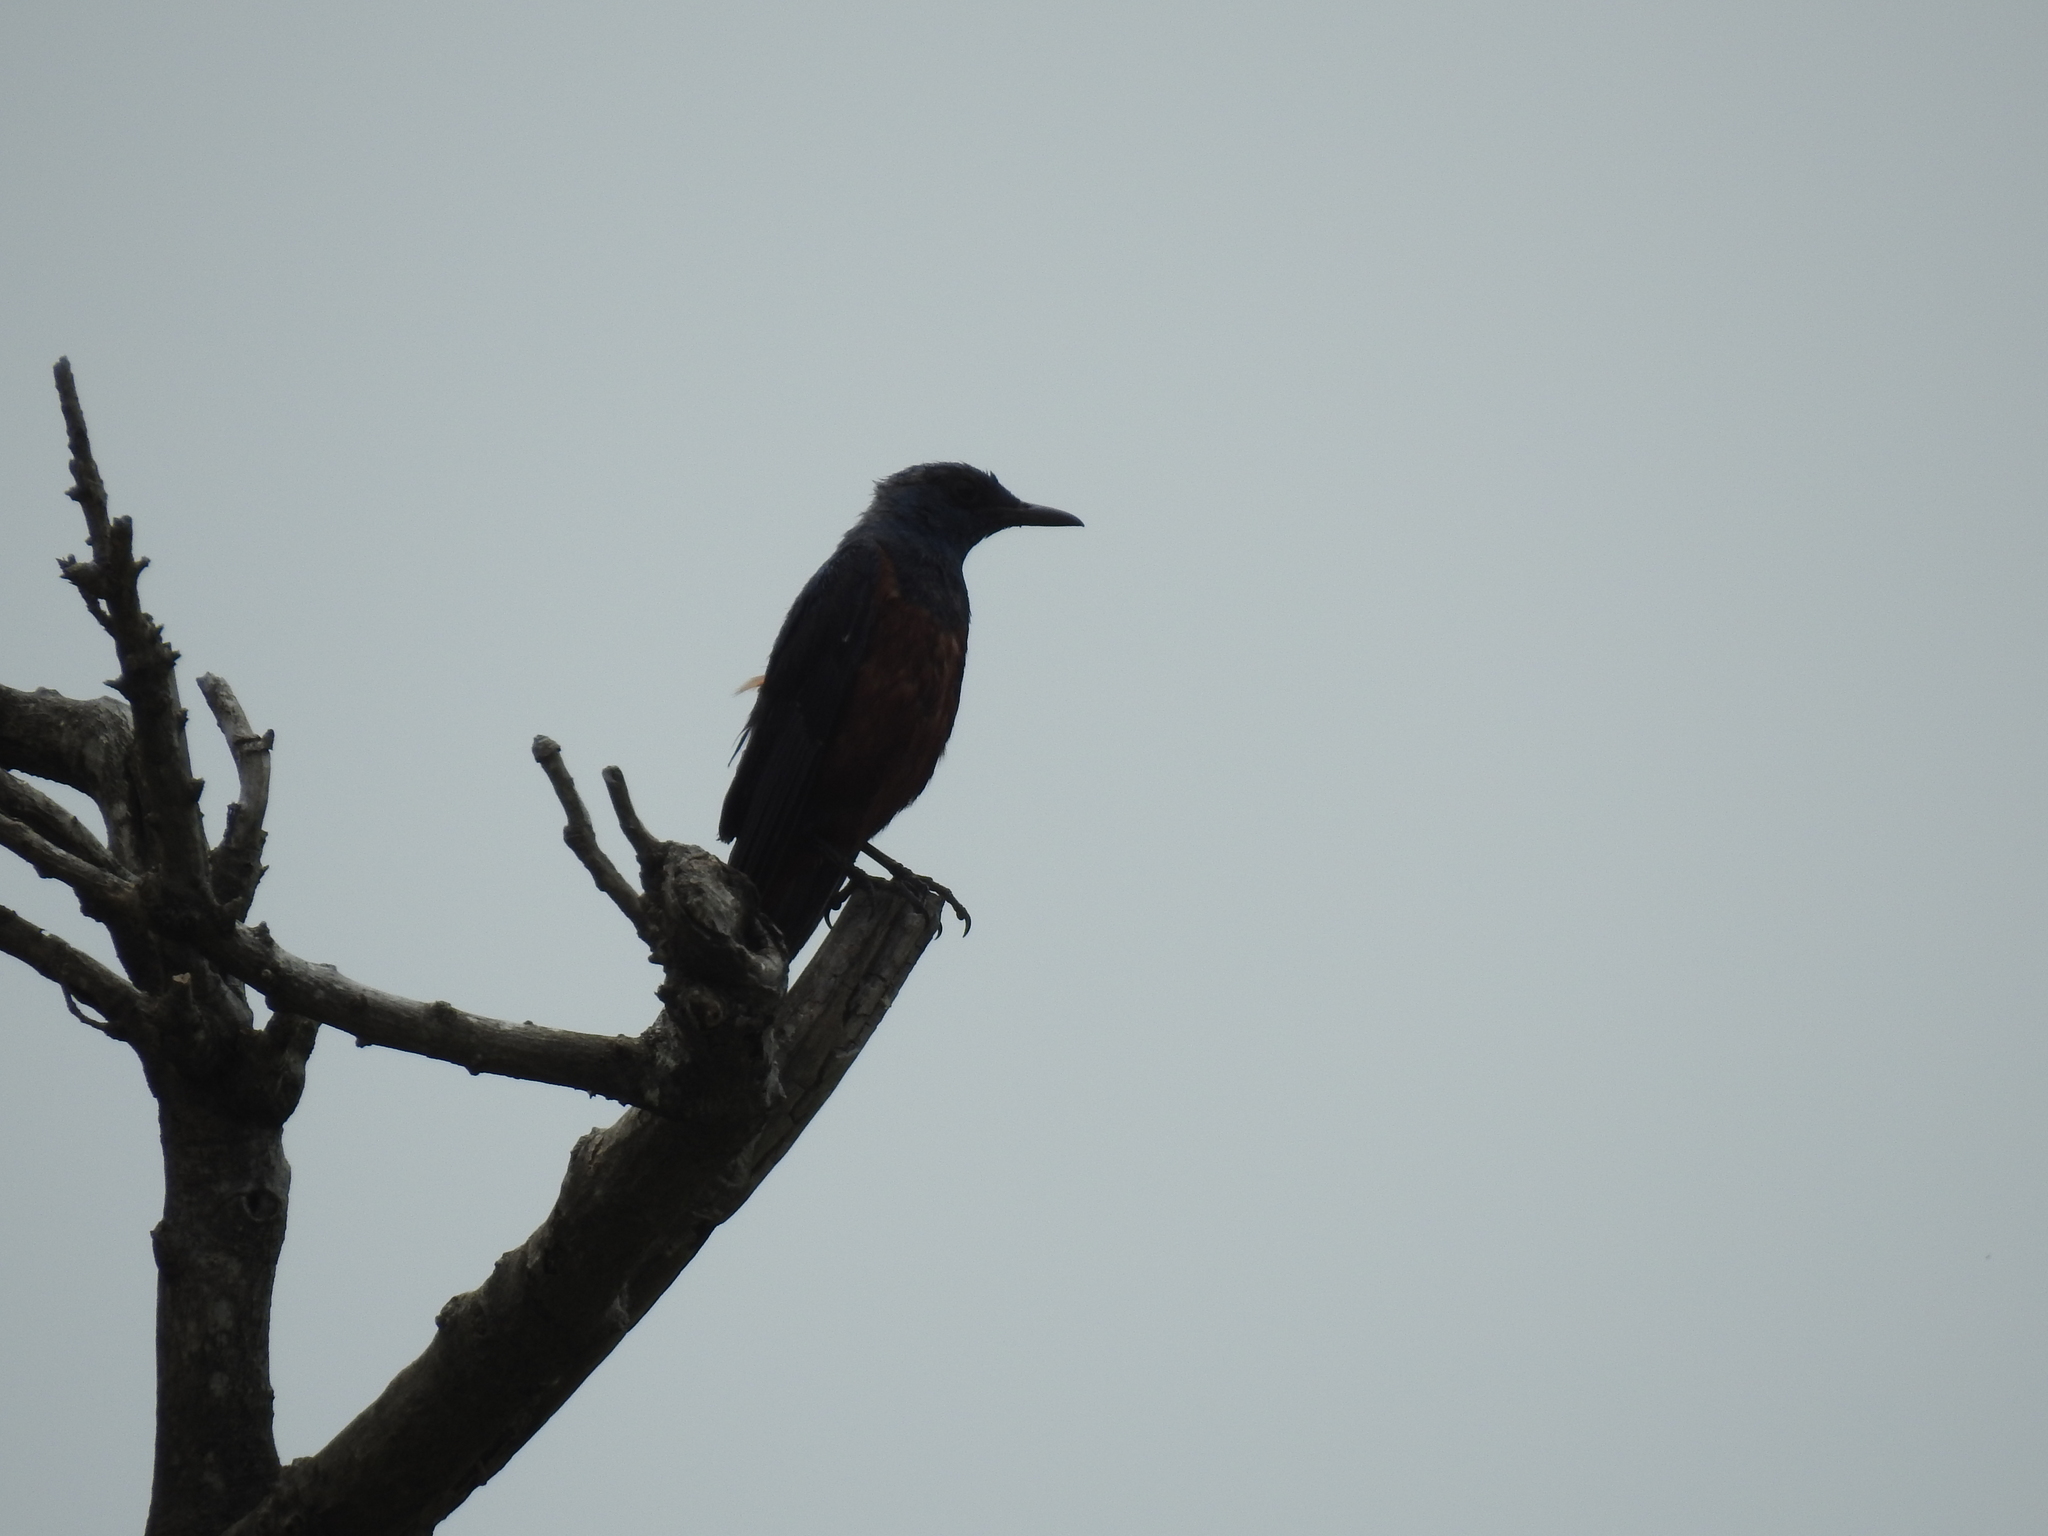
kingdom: Animalia
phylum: Chordata
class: Aves
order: Passeriformes
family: Muscicapidae
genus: Monticola
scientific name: Monticola solitarius
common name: Blue rock thrush
